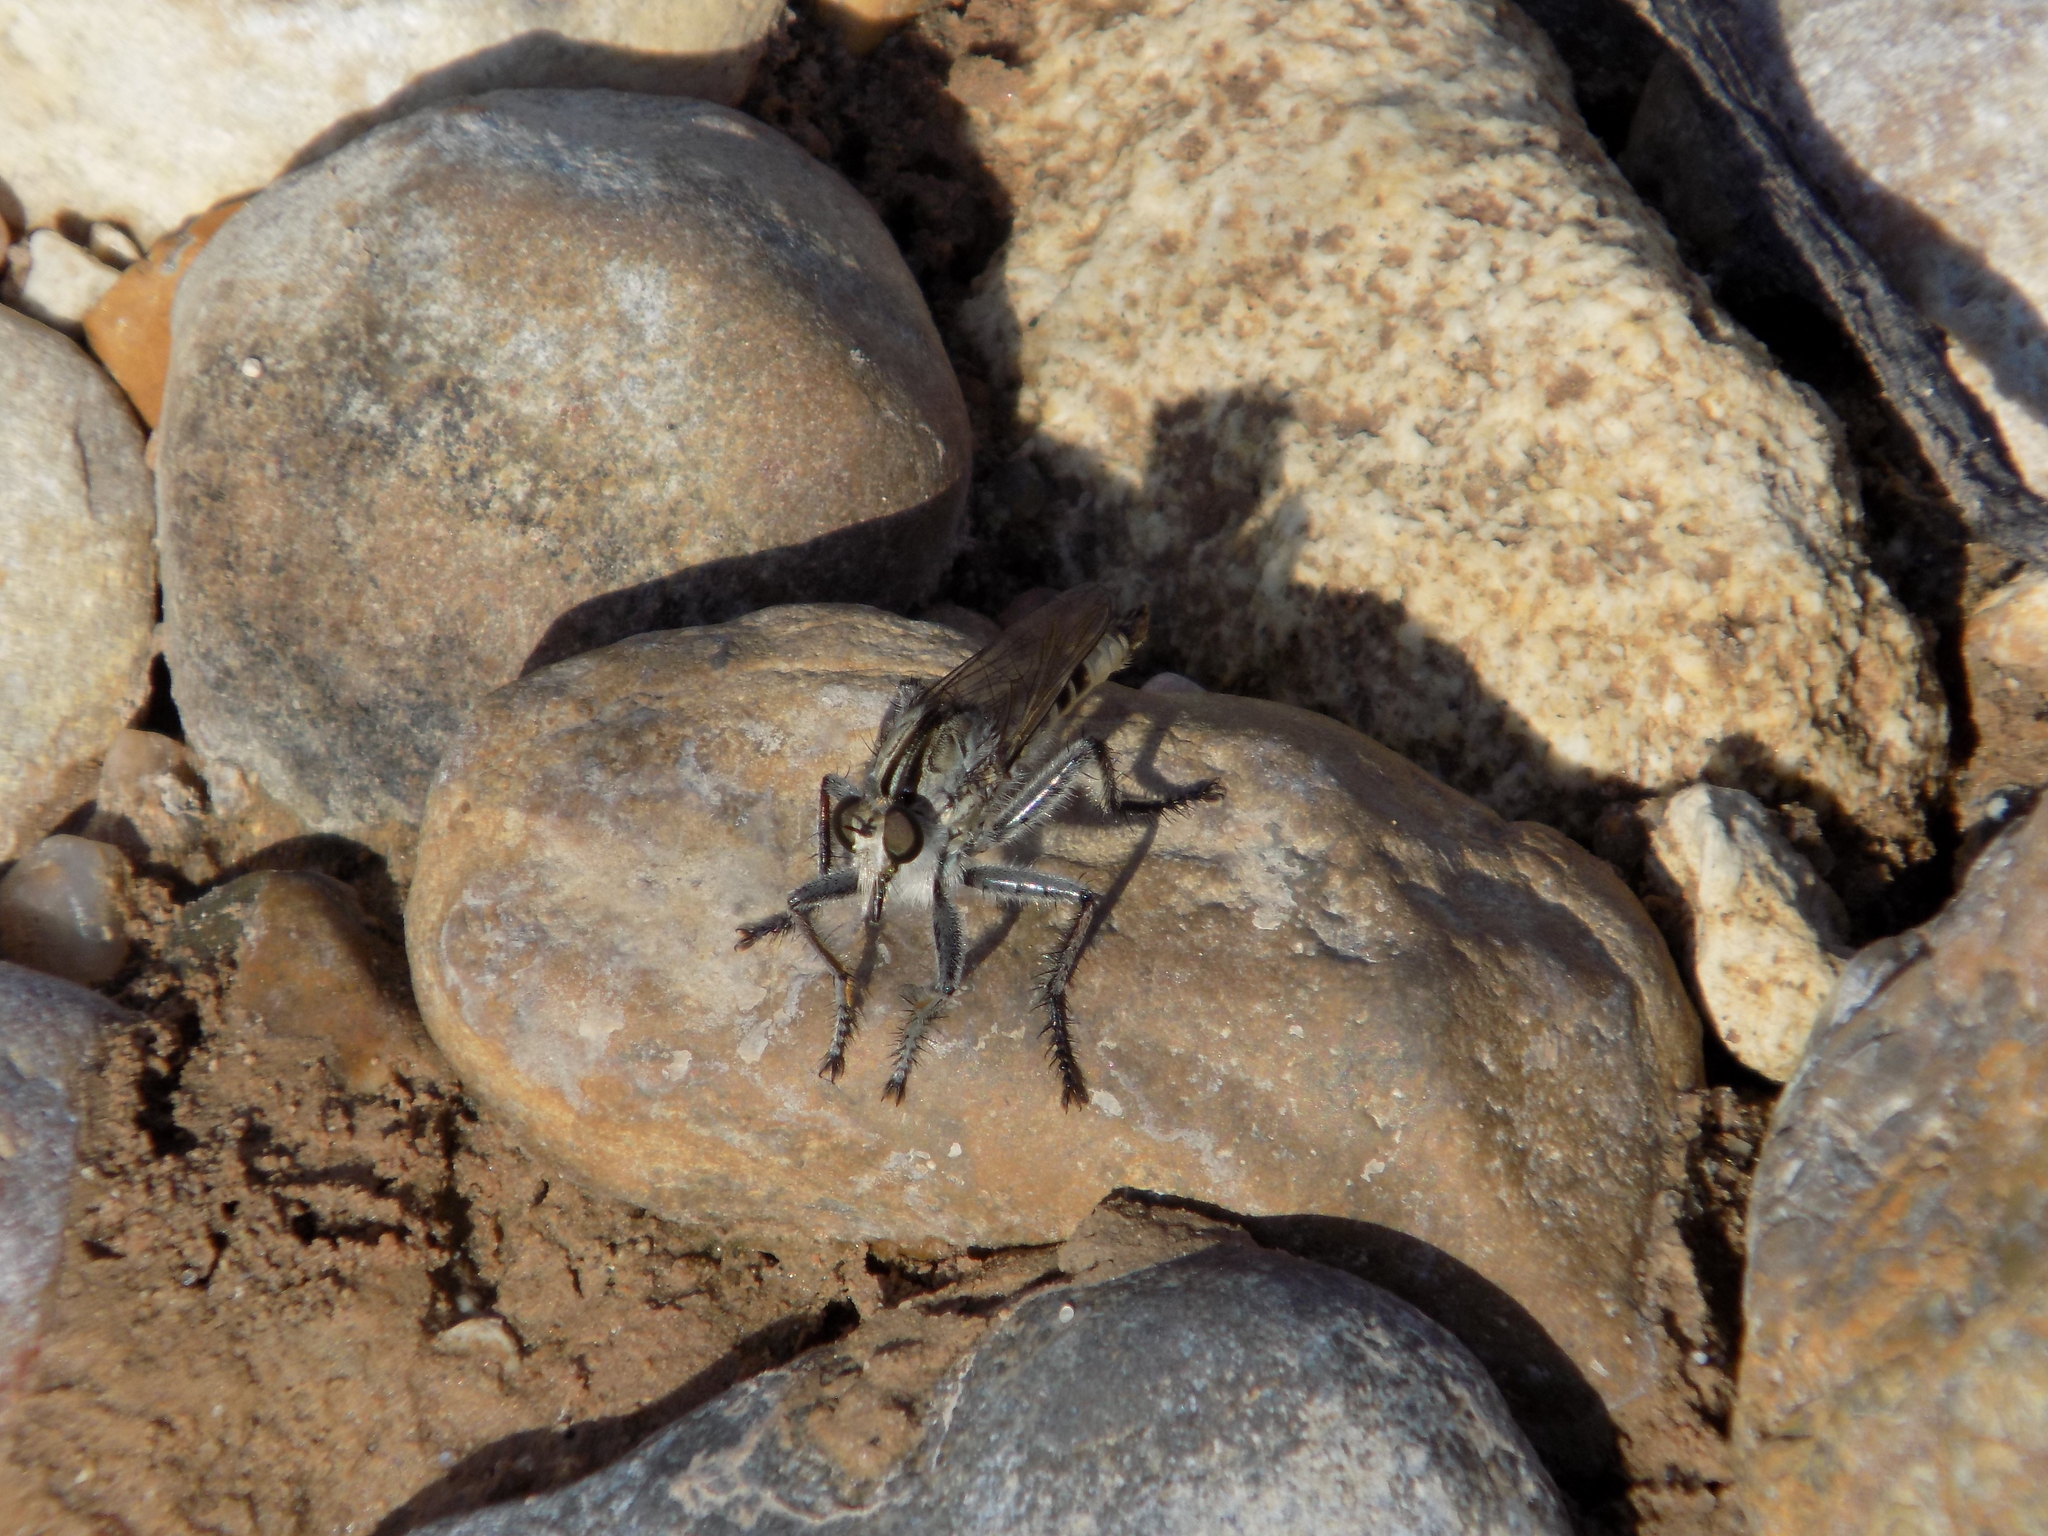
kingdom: Animalia
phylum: Arthropoda
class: Insecta
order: Diptera
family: Asilidae
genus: Triorla
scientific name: Triorla interrupta
